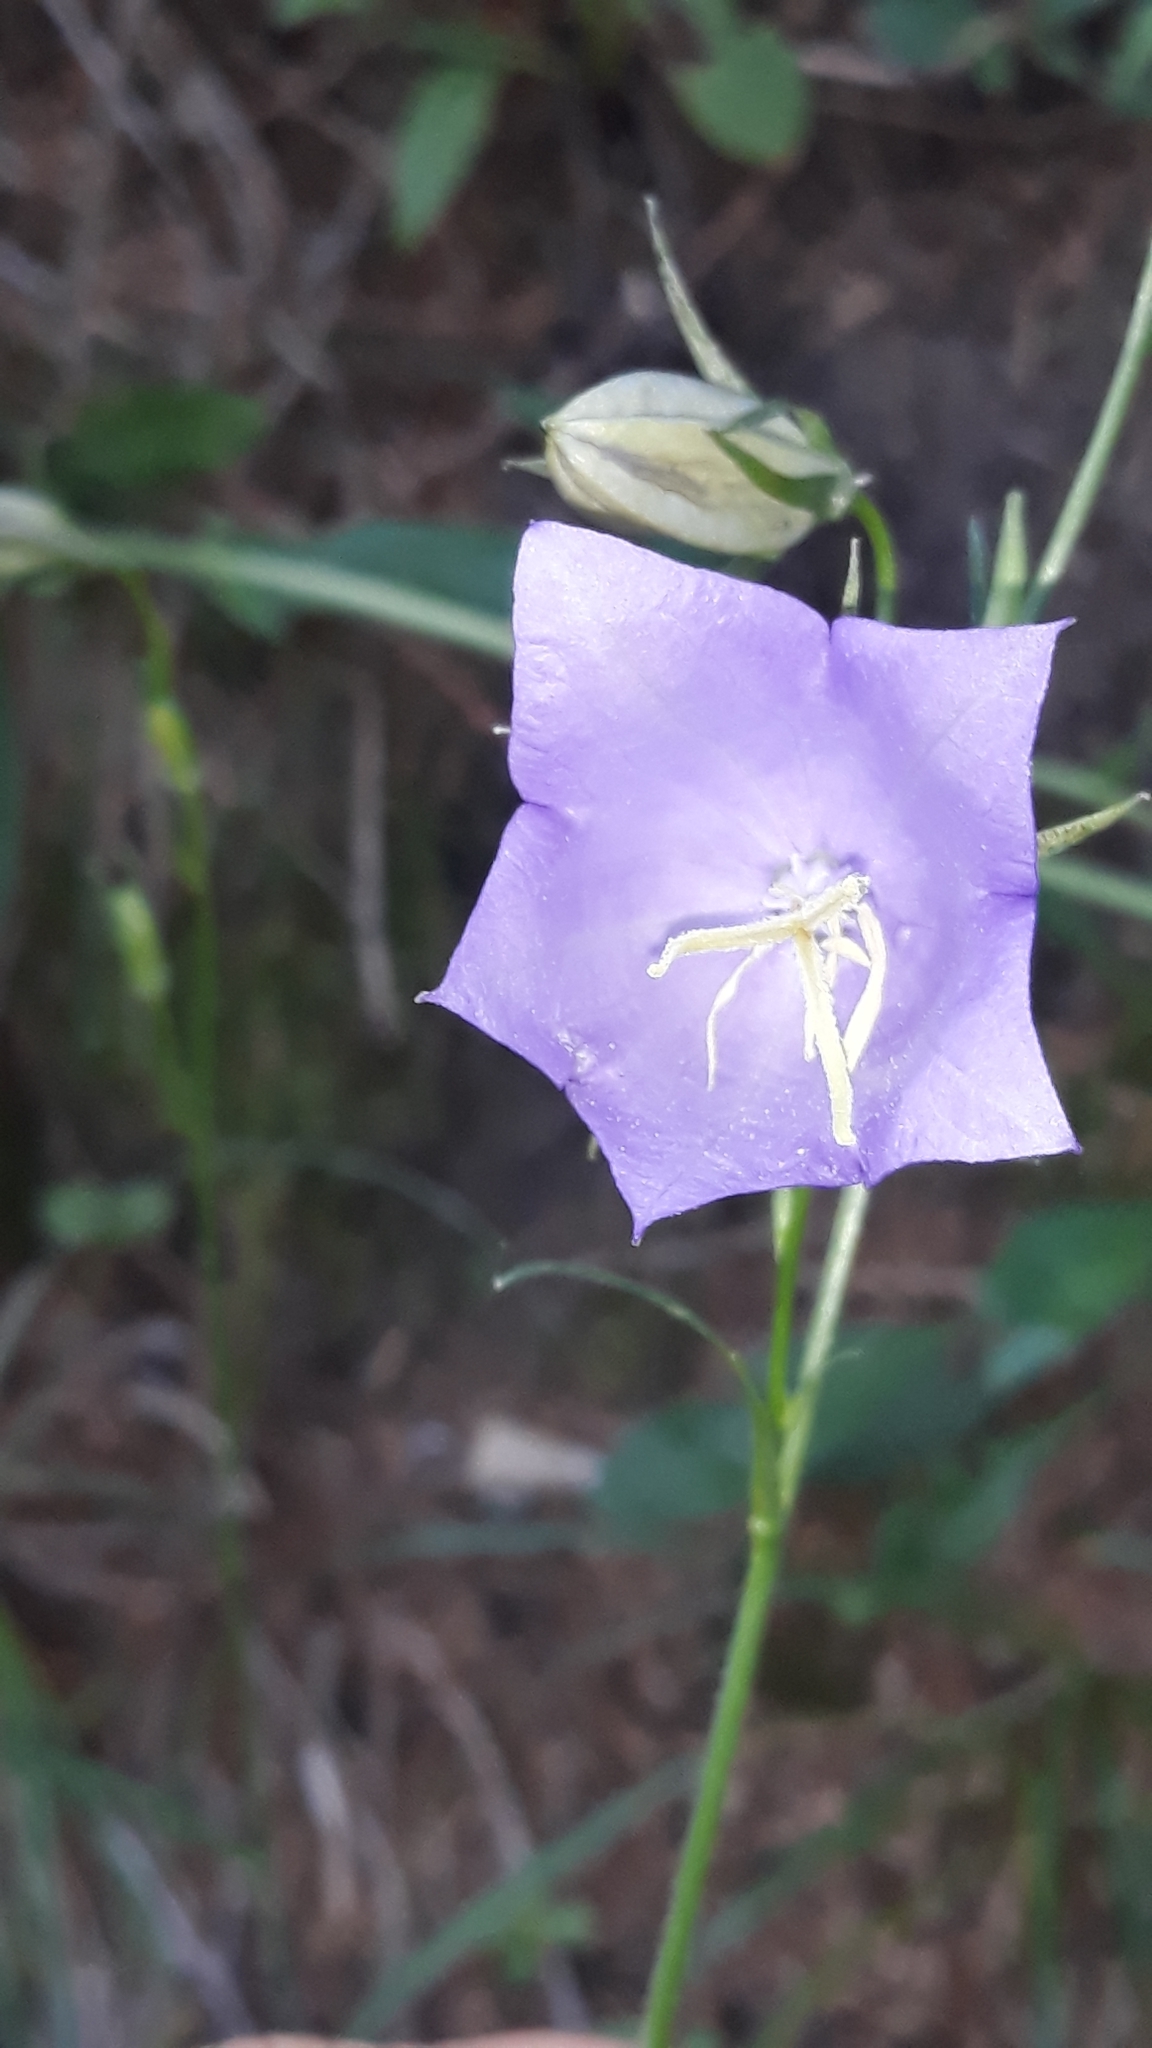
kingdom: Plantae
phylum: Tracheophyta
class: Magnoliopsida
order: Asterales
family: Campanulaceae
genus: Campanula
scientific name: Campanula persicifolia
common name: Peach-leaved bellflower
